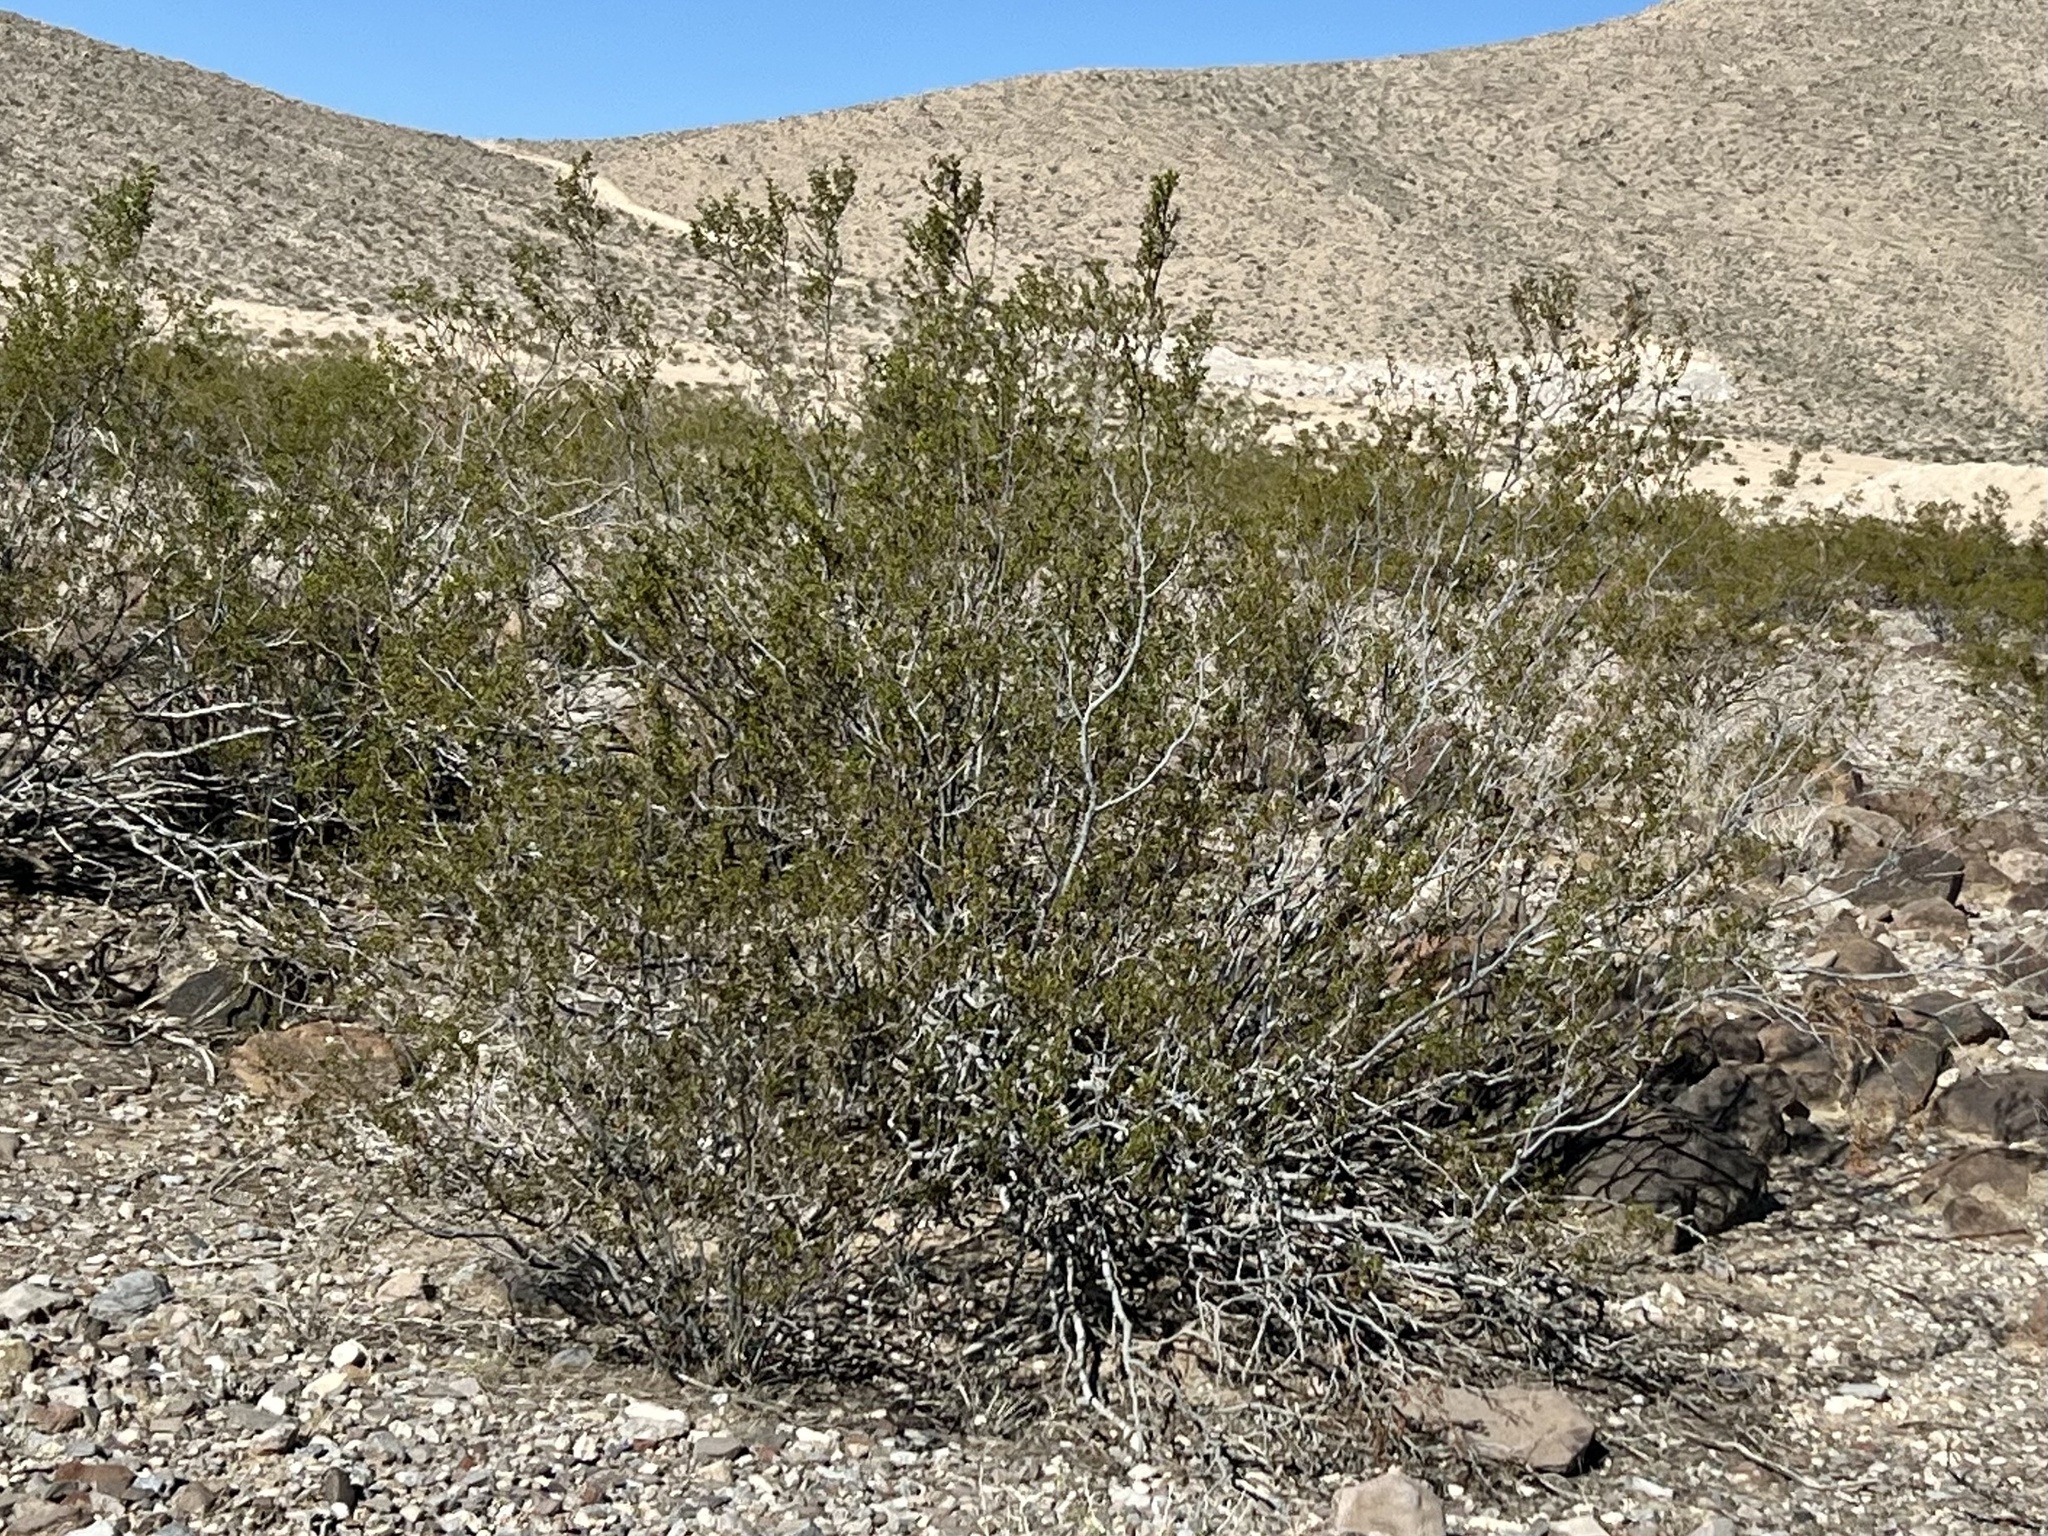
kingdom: Plantae
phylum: Tracheophyta
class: Magnoliopsida
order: Zygophyllales
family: Zygophyllaceae
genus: Larrea
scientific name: Larrea tridentata
